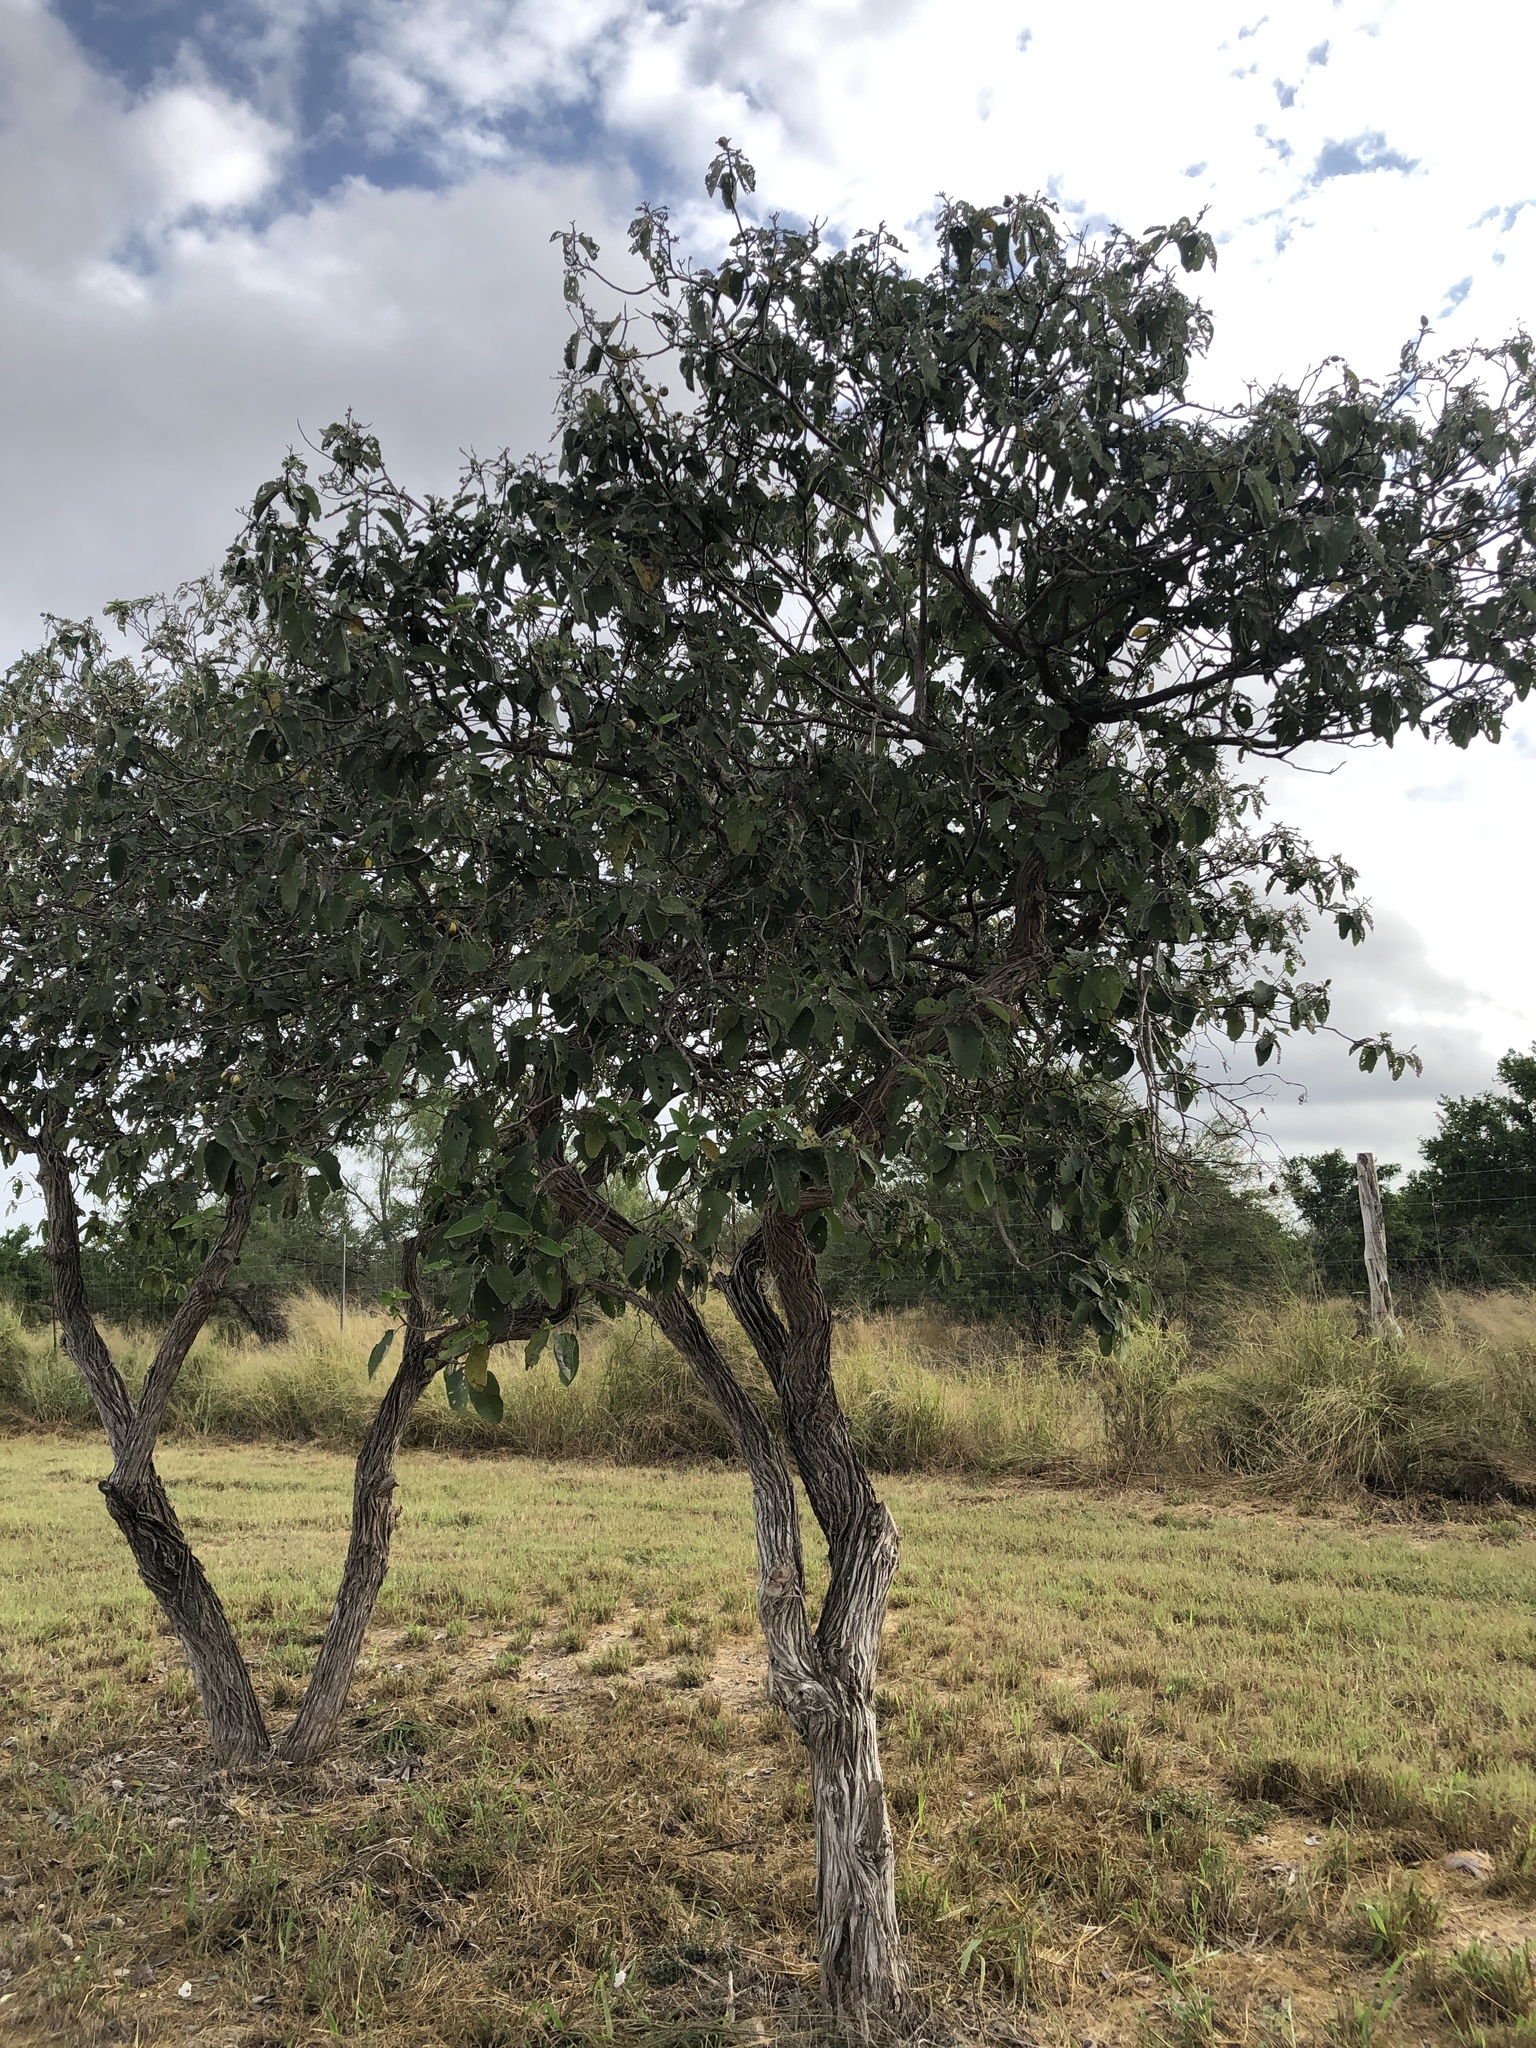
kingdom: Plantae
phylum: Tracheophyta
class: Magnoliopsida
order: Boraginales
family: Cordiaceae
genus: Cordia
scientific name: Cordia boissieri
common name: Mexican-olive
